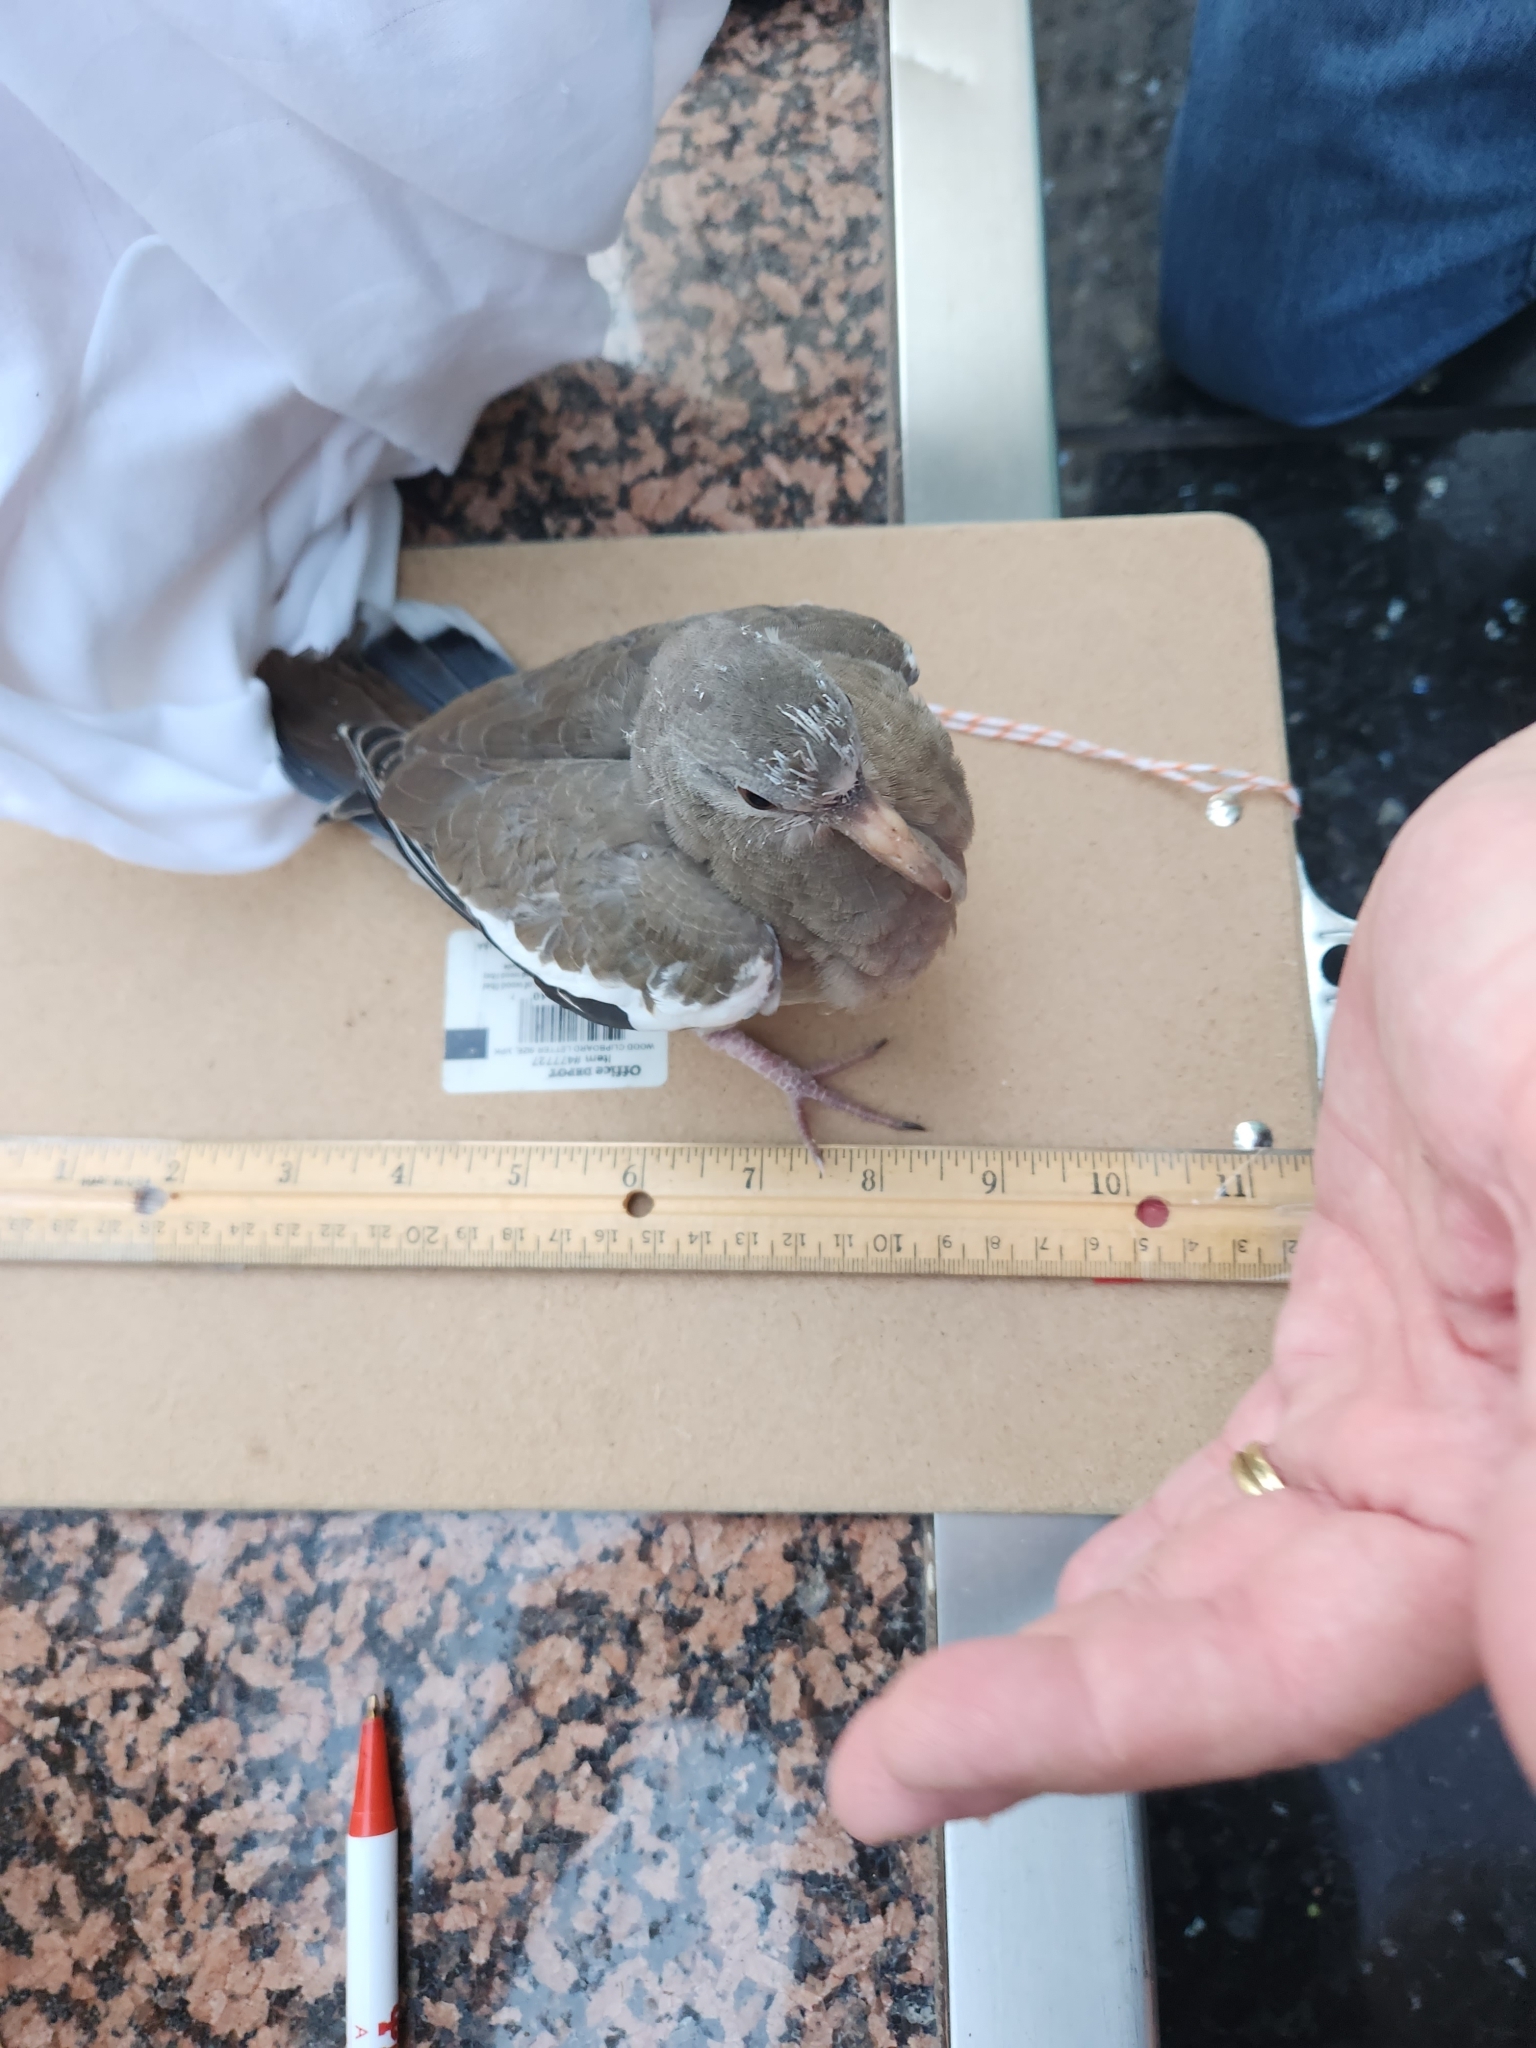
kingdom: Animalia
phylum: Chordata
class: Aves
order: Columbiformes
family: Columbidae
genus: Zenaida
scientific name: Zenaida asiatica
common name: White-winged dove
